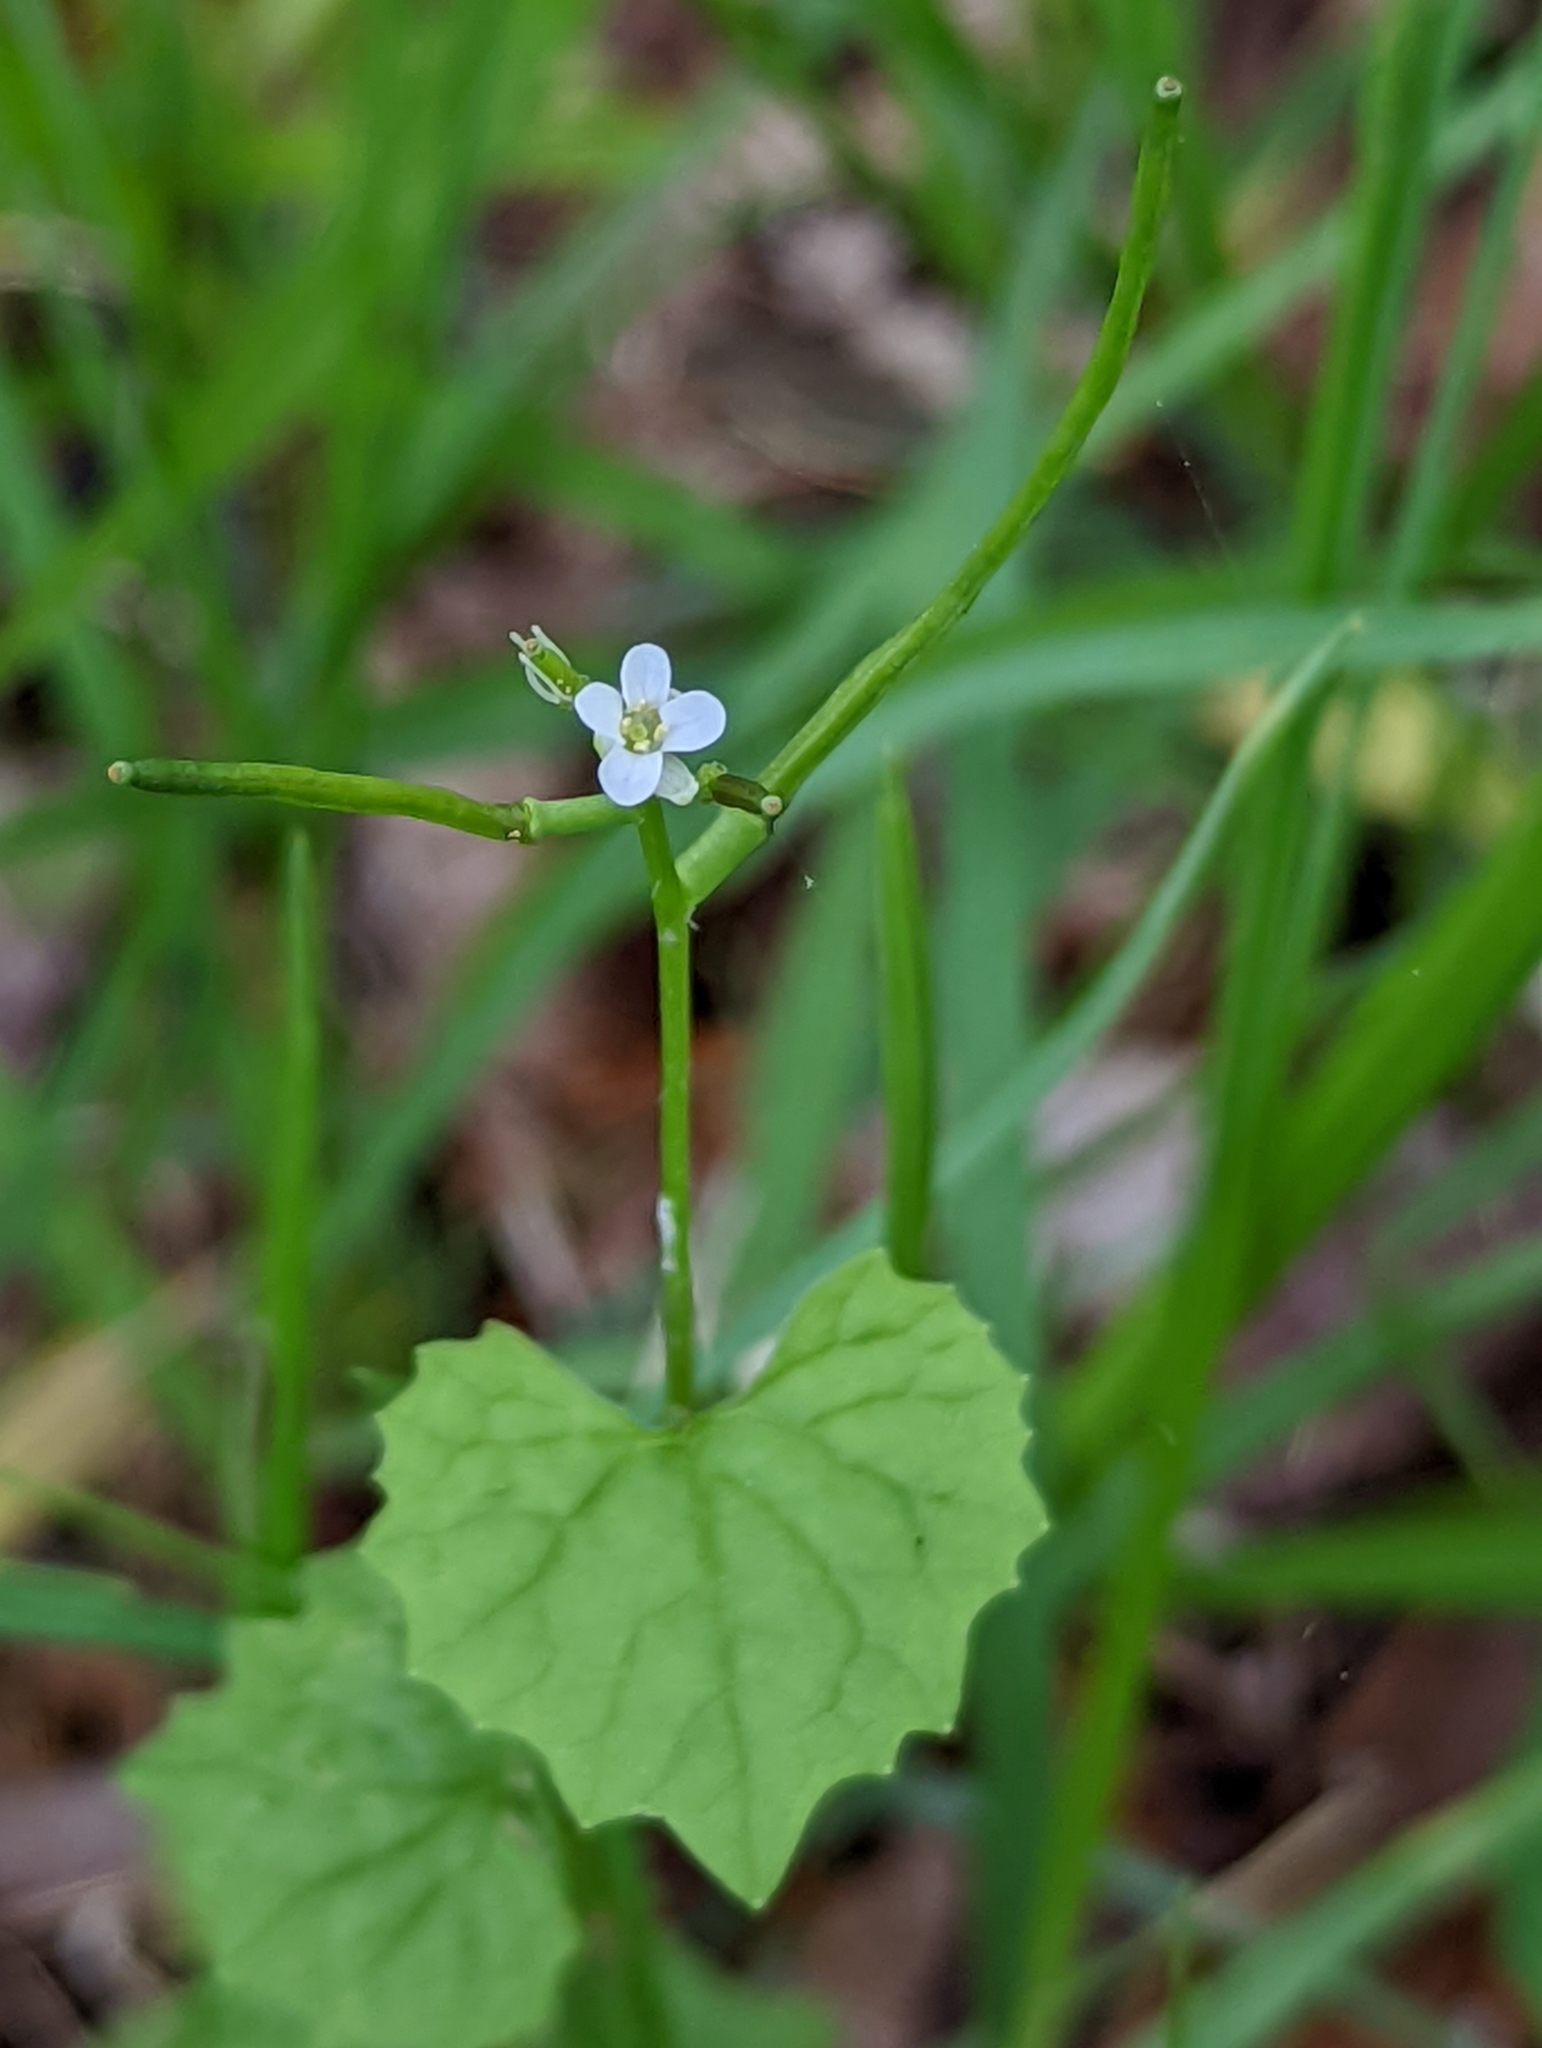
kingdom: Plantae
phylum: Tracheophyta
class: Magnoliopsida
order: Brassicales
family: Brassicaceae
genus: Alliaria
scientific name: Alliaria petiolata
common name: Garlic mustard
